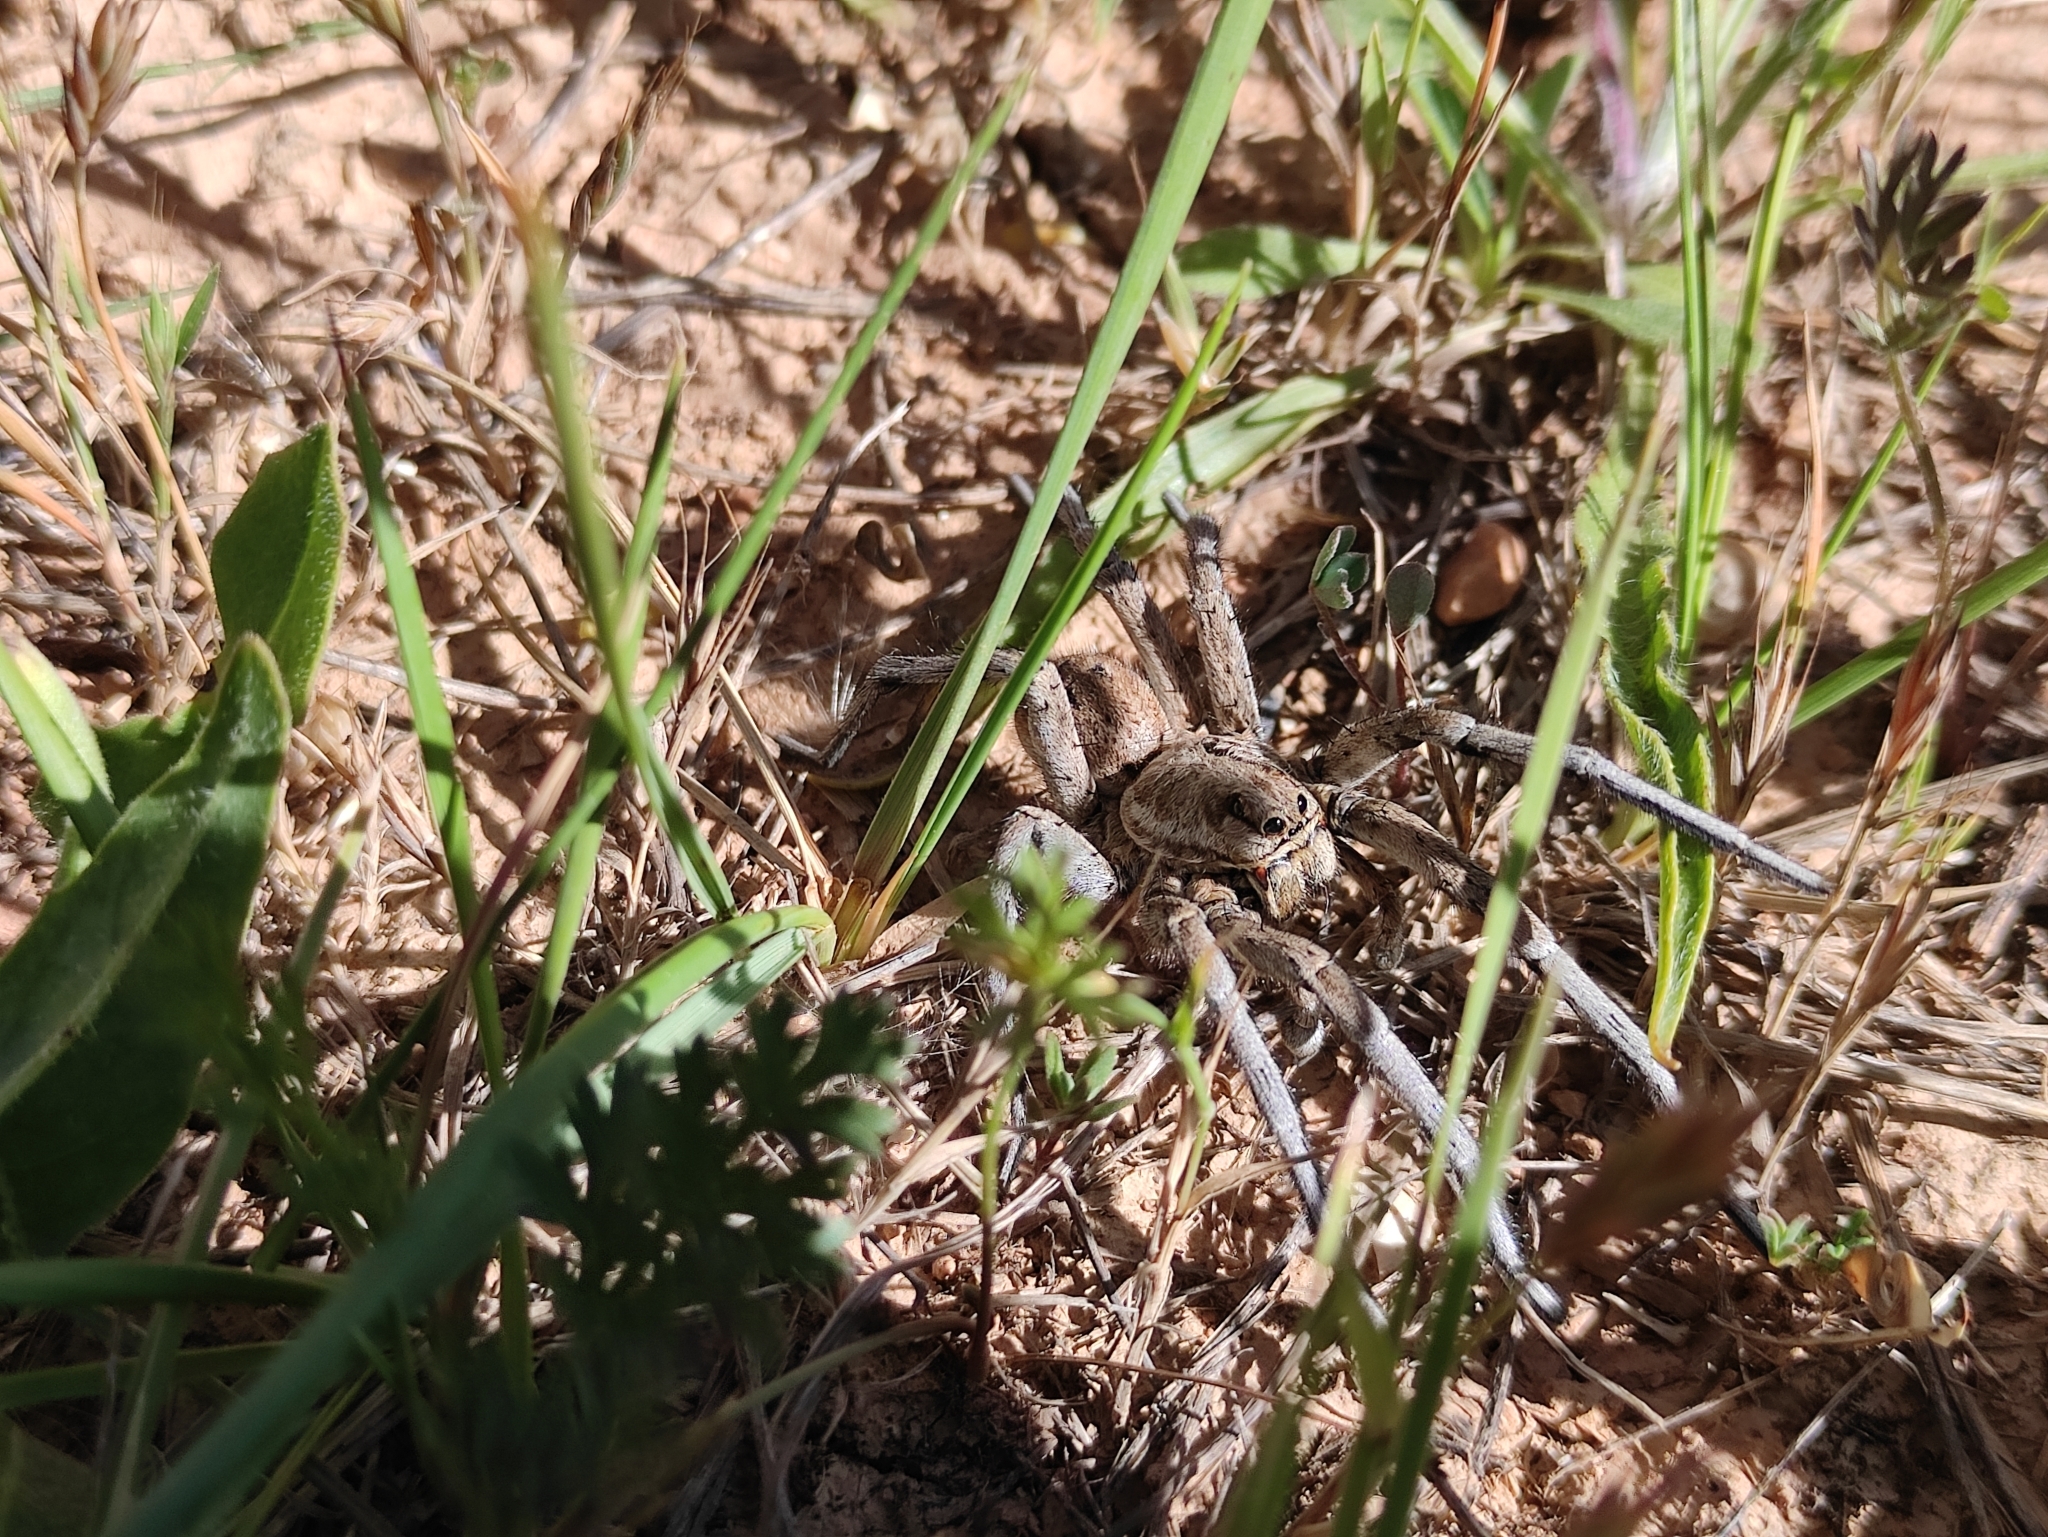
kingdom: Animalia
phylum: Arthropoda
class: Arachnida
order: Araneae
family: Lycosidae
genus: Lycosa
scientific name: Lycosa tarantula
